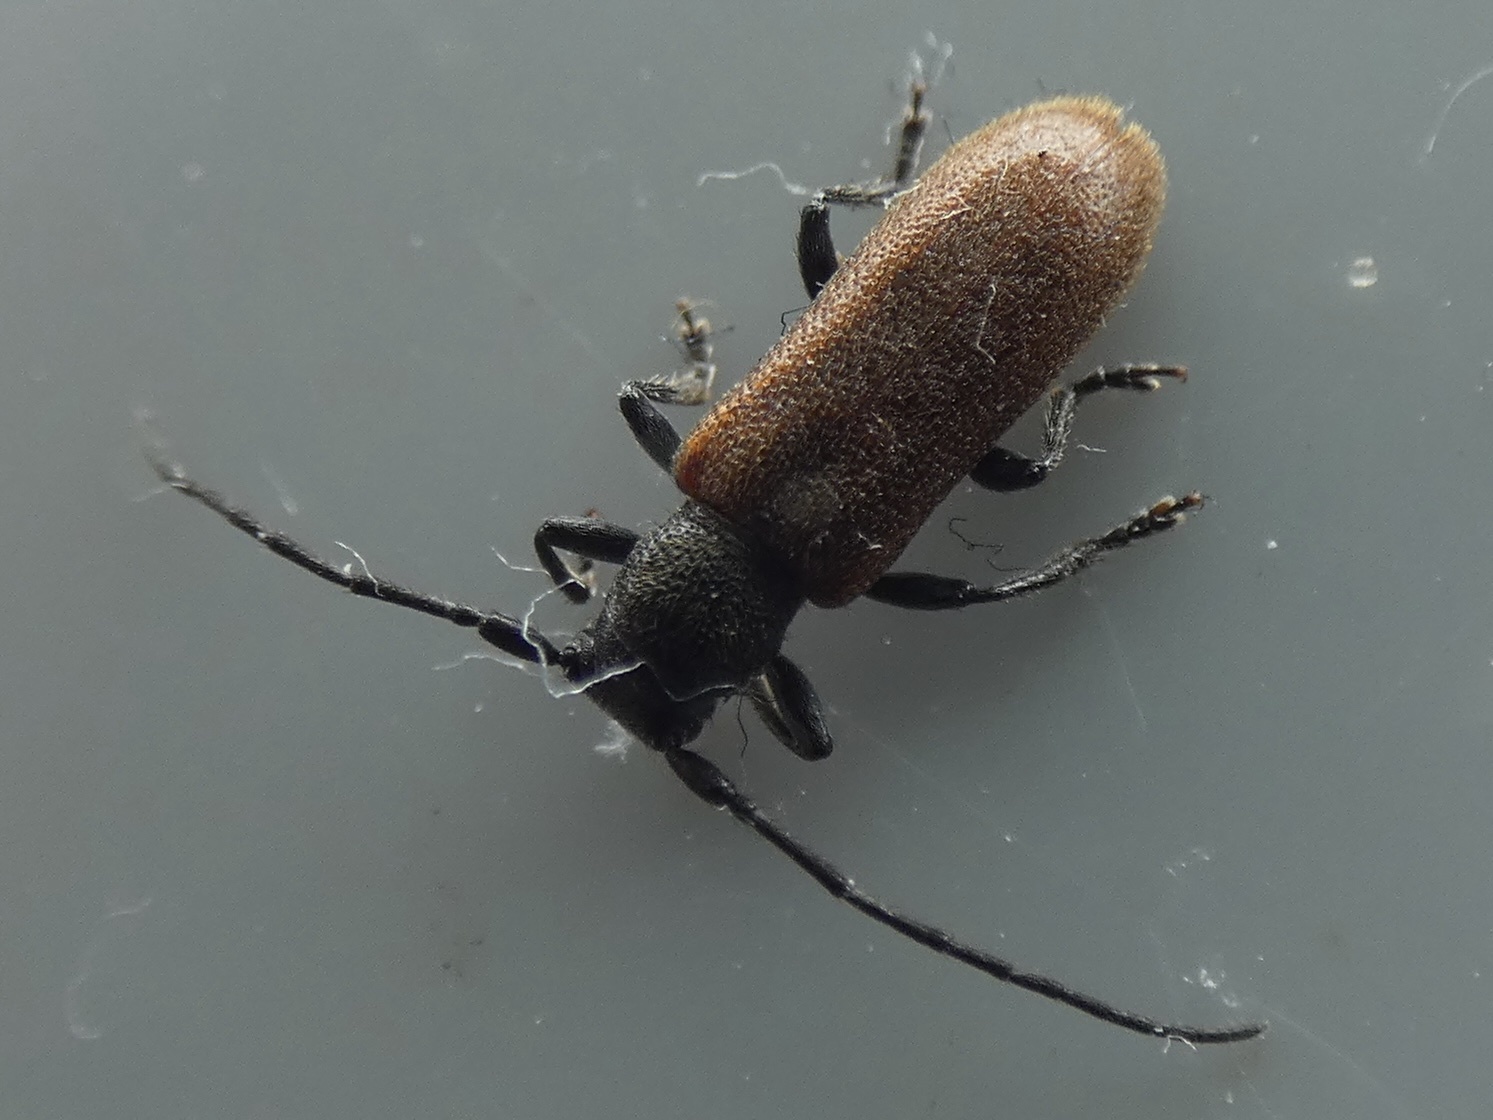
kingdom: Animalia
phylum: Arthropoda
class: Insecta
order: Coleoptera
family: Cerambycidae
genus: Anaesthetis
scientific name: Anaesthetis testacea
